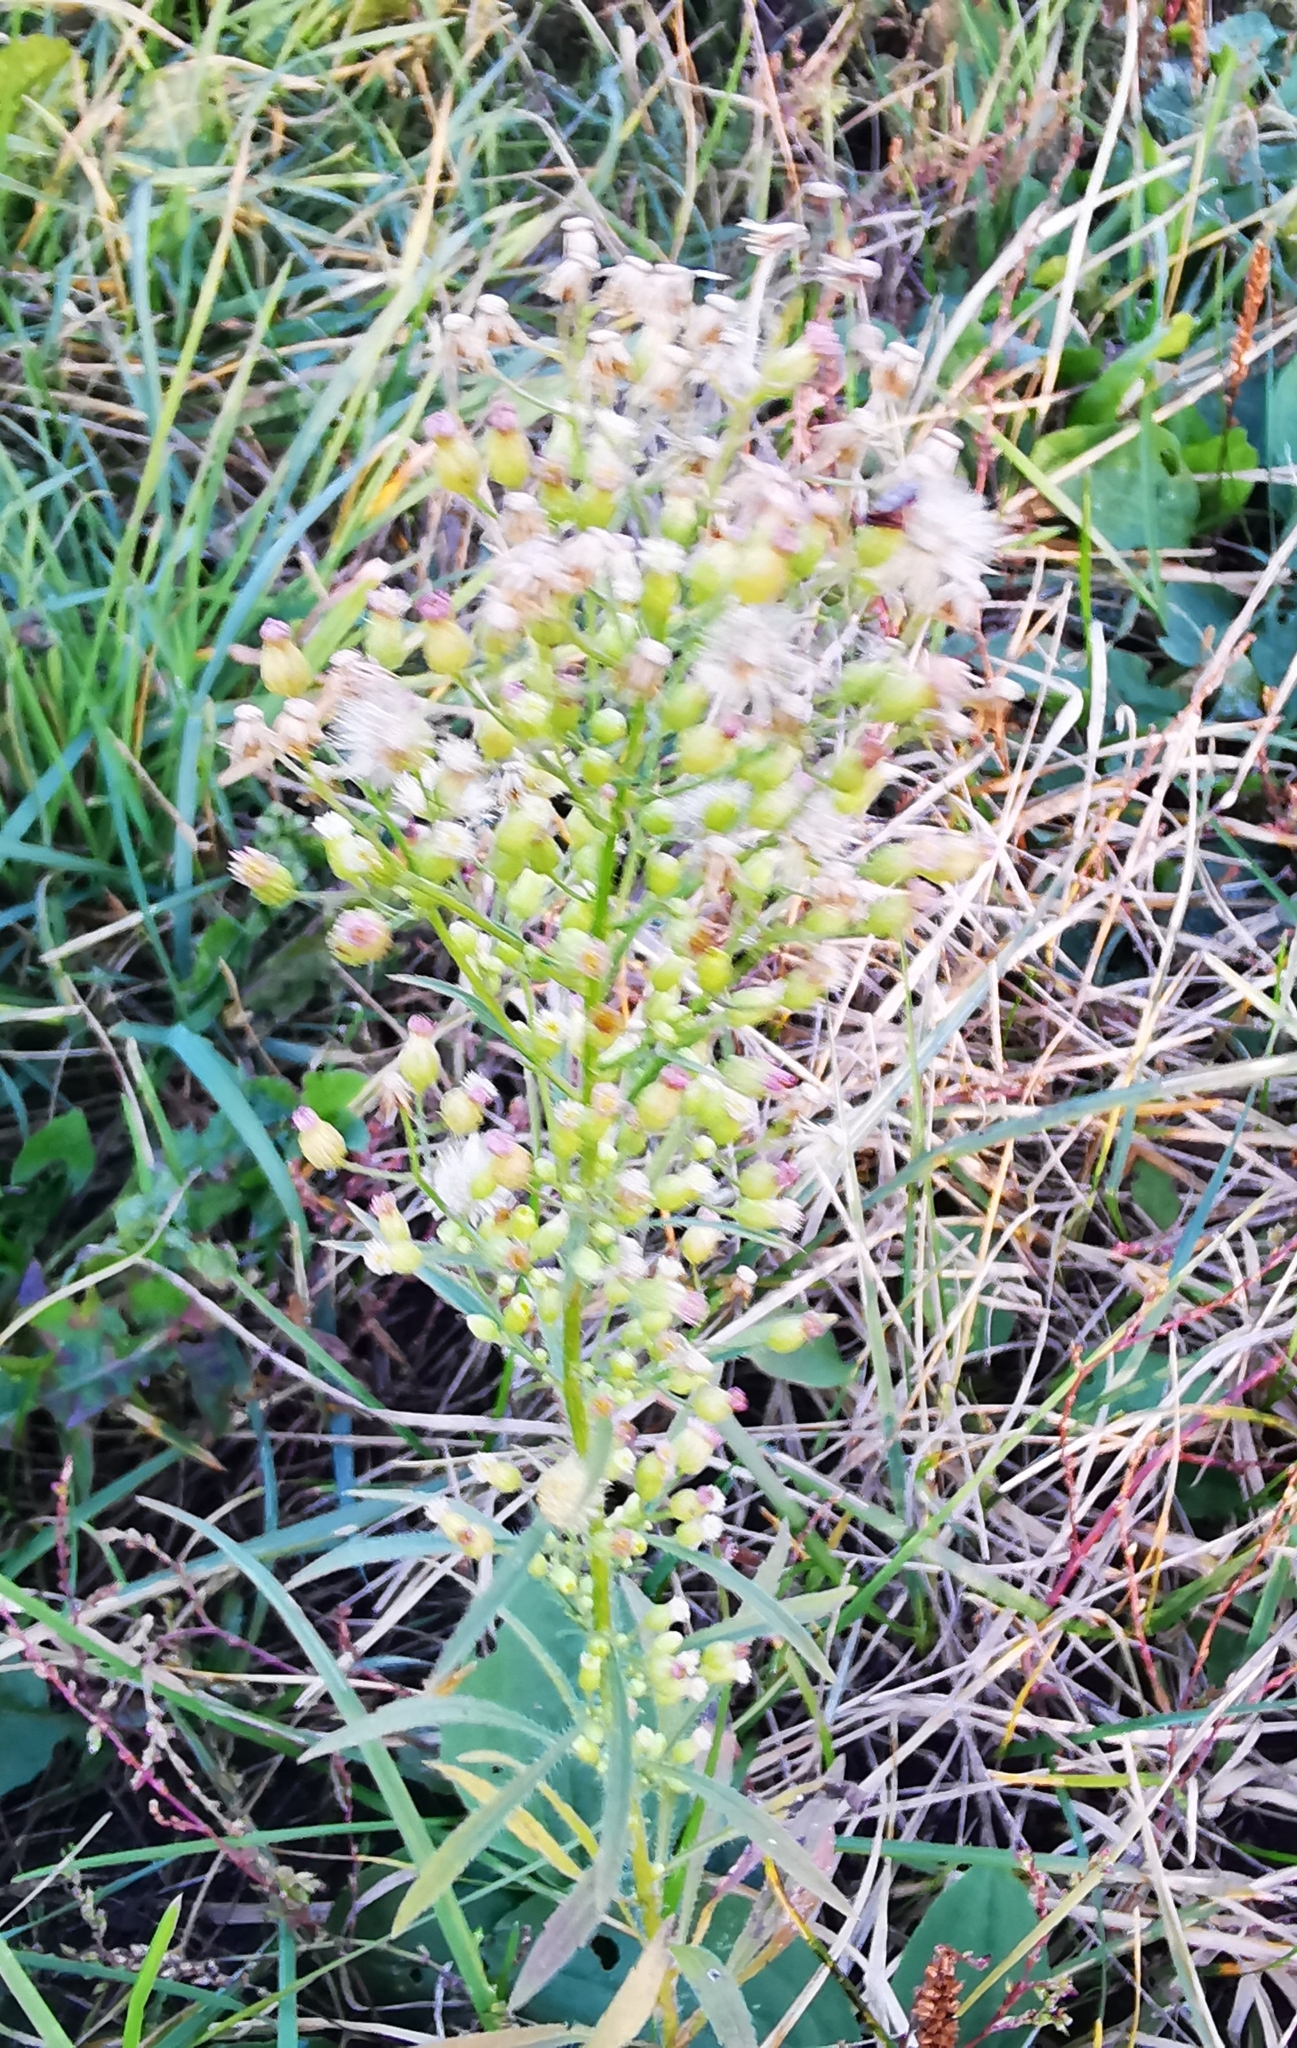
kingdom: Plantae
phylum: Tracheophyta
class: Magnoliopsida
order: Asterales
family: Asteraceae
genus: Erigeron
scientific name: Erigeron canadensis
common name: Canadian fleabane
